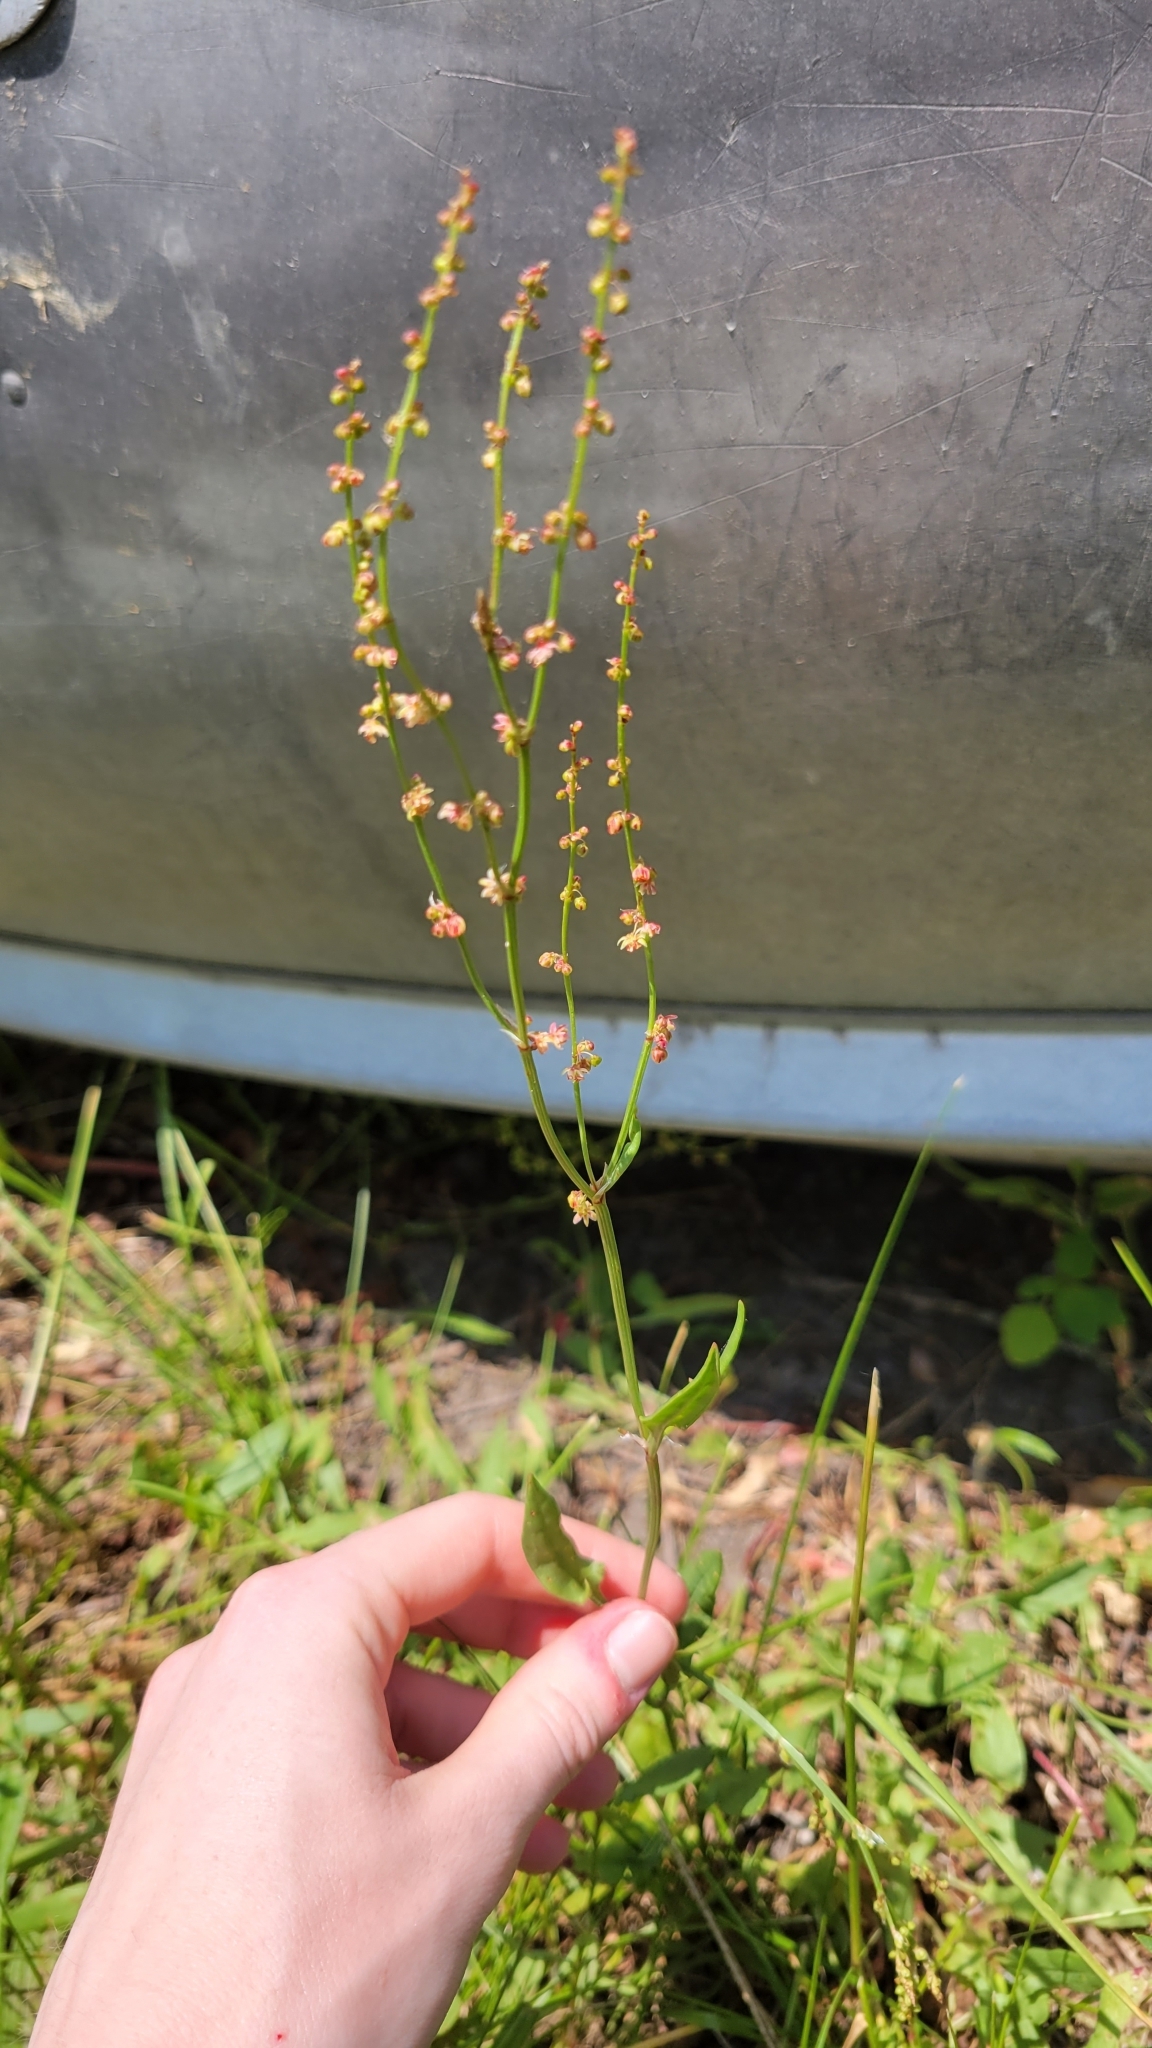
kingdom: Plantae
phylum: Tracheophyta
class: Magnoliopsida
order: Caryophyllales
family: Polygonaceae
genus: Rumex
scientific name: Rumex acetosella
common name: Common sheep sorrel
